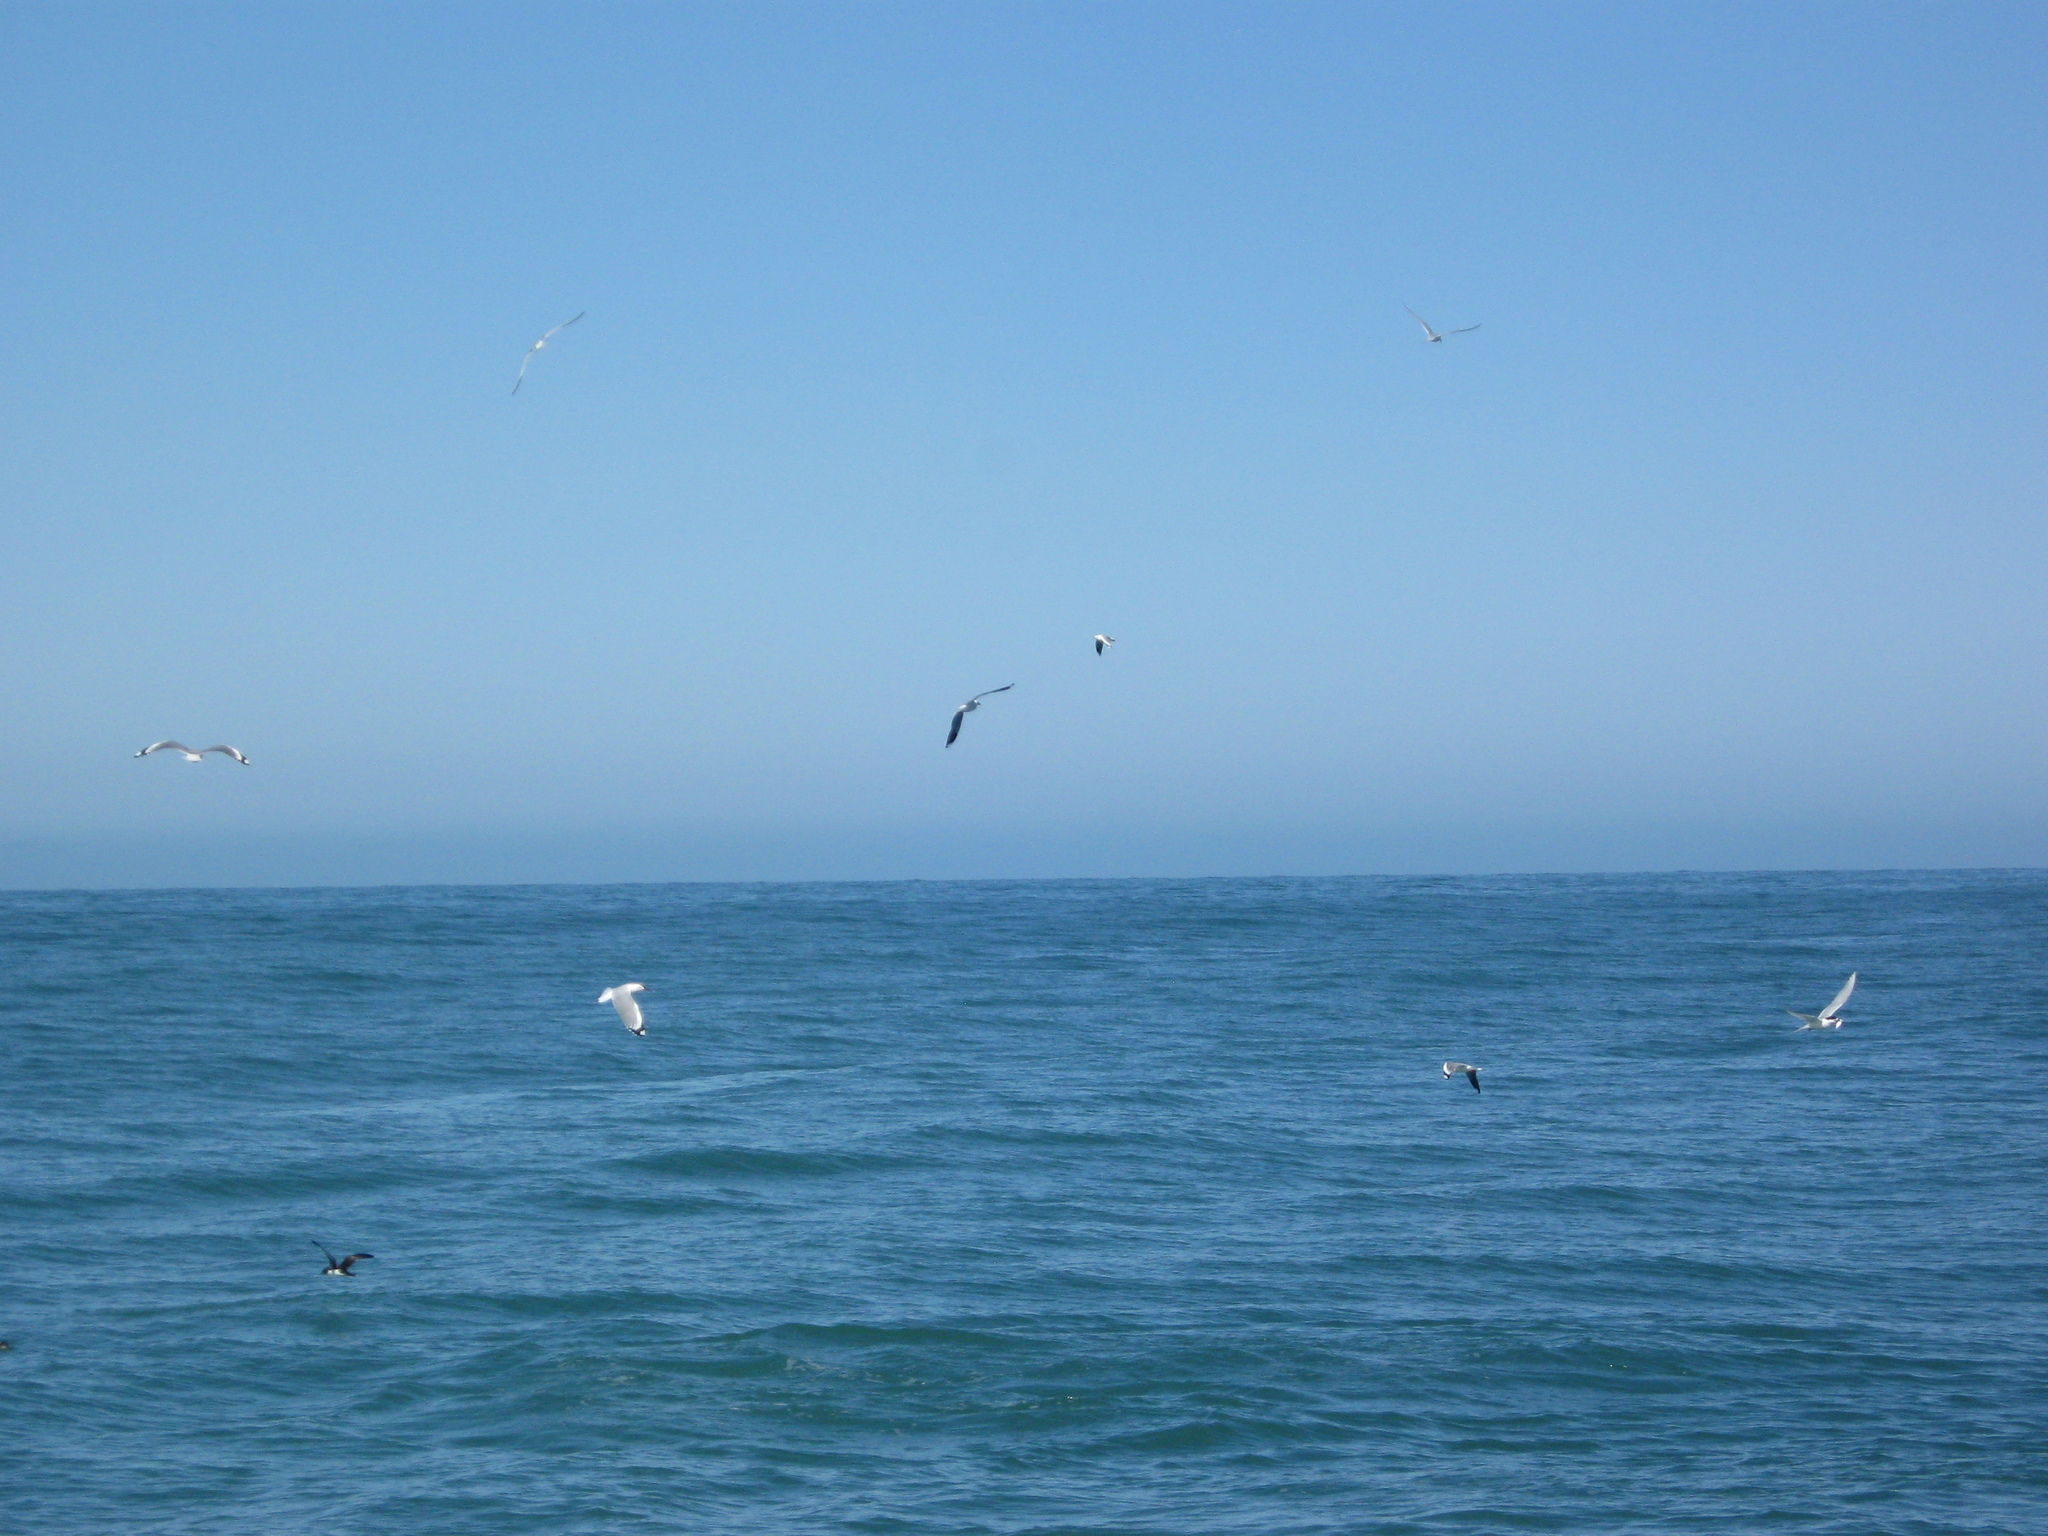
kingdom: Animalia
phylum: Chordata
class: Aves
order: Charadriiformes
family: Laridae
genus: Sterna
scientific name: Sterna striata
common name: White-fronted tern
